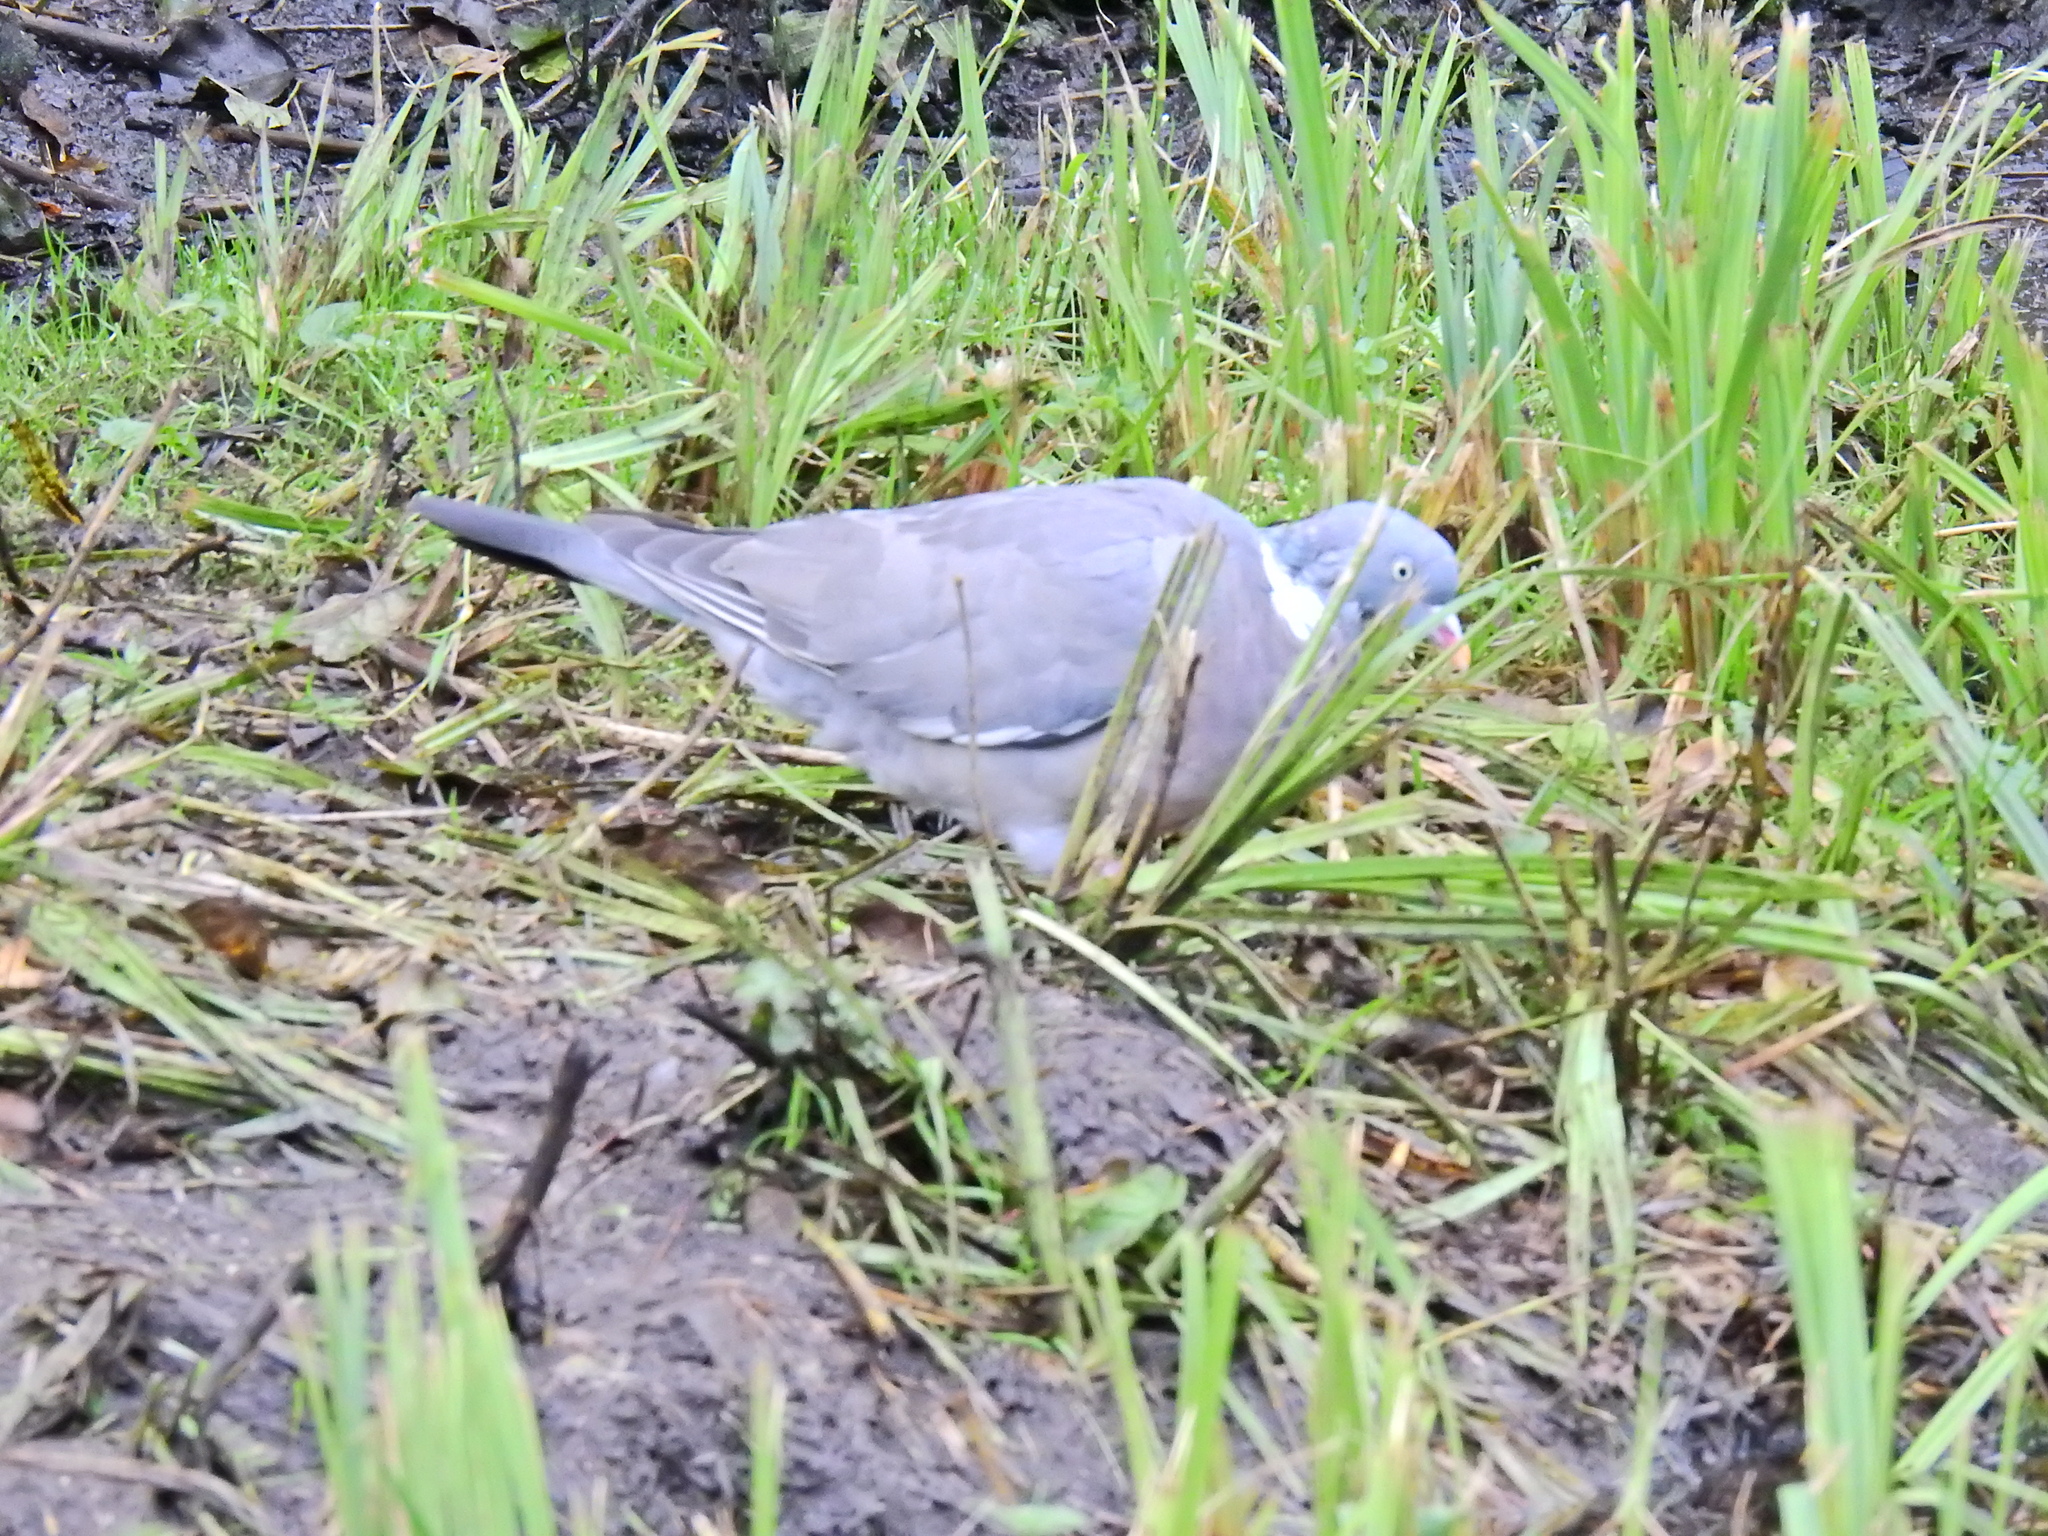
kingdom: Animalia
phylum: Chordata
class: Aves
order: Columbiformes
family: Columbidae
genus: Columba
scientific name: Columba palumbus
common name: Common wood pigeon
